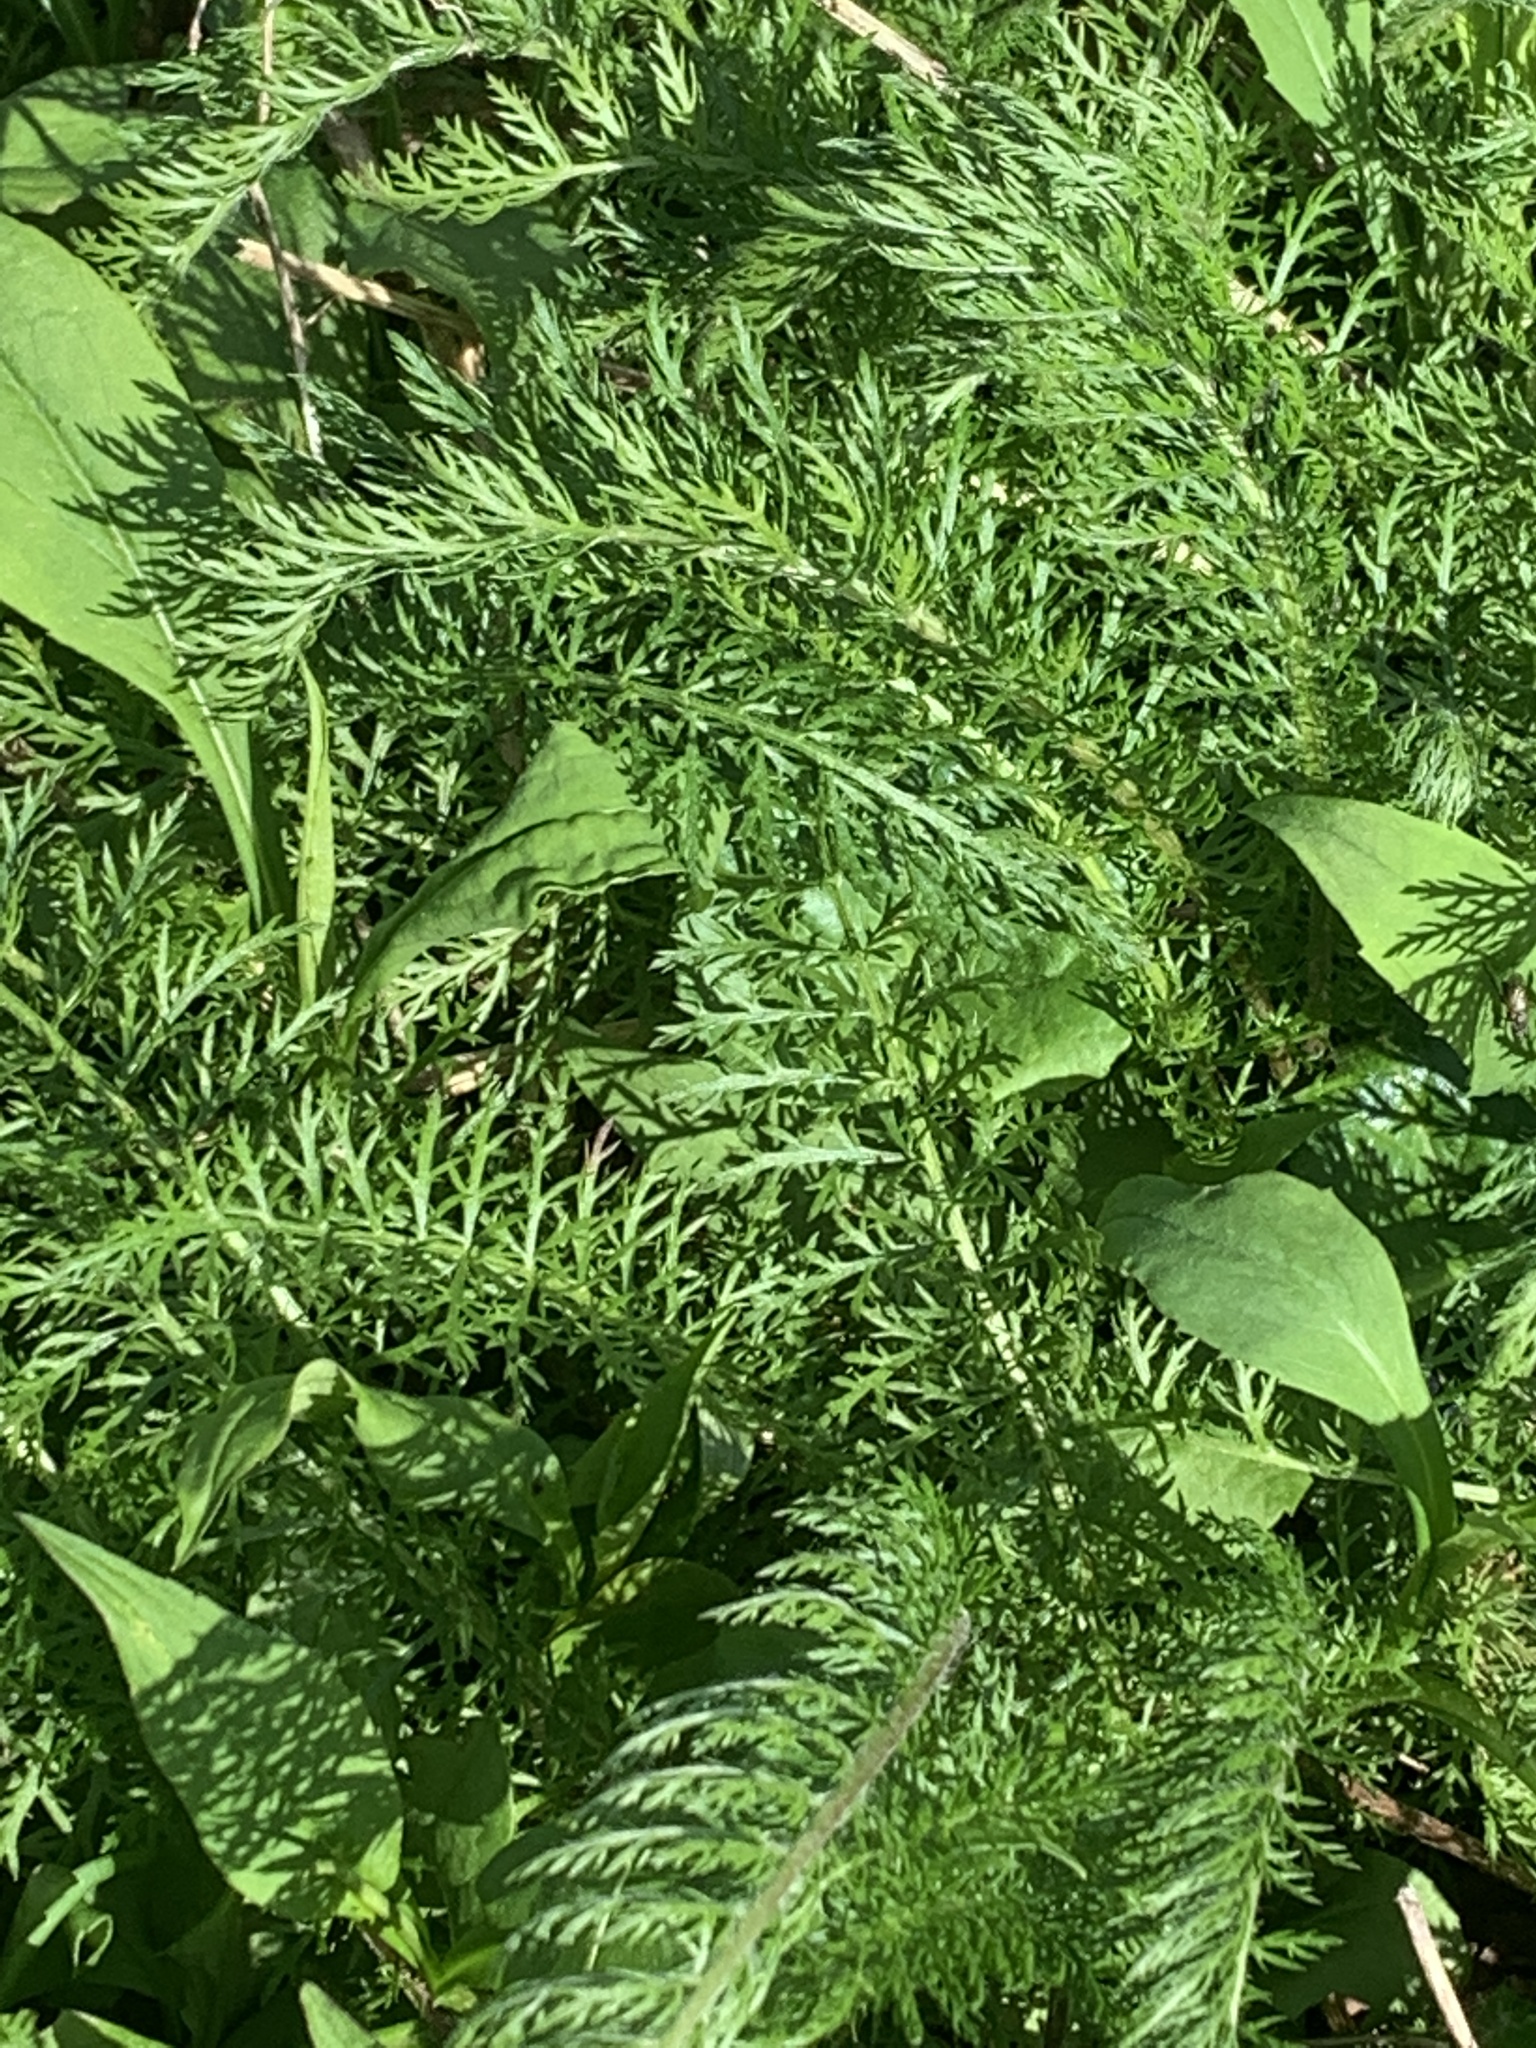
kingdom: Plantae
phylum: Tracheophyta
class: Magnoliopsida
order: Asterales
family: Asteraceae
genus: Achillea
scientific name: Achillea millefolium
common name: Yarrow
